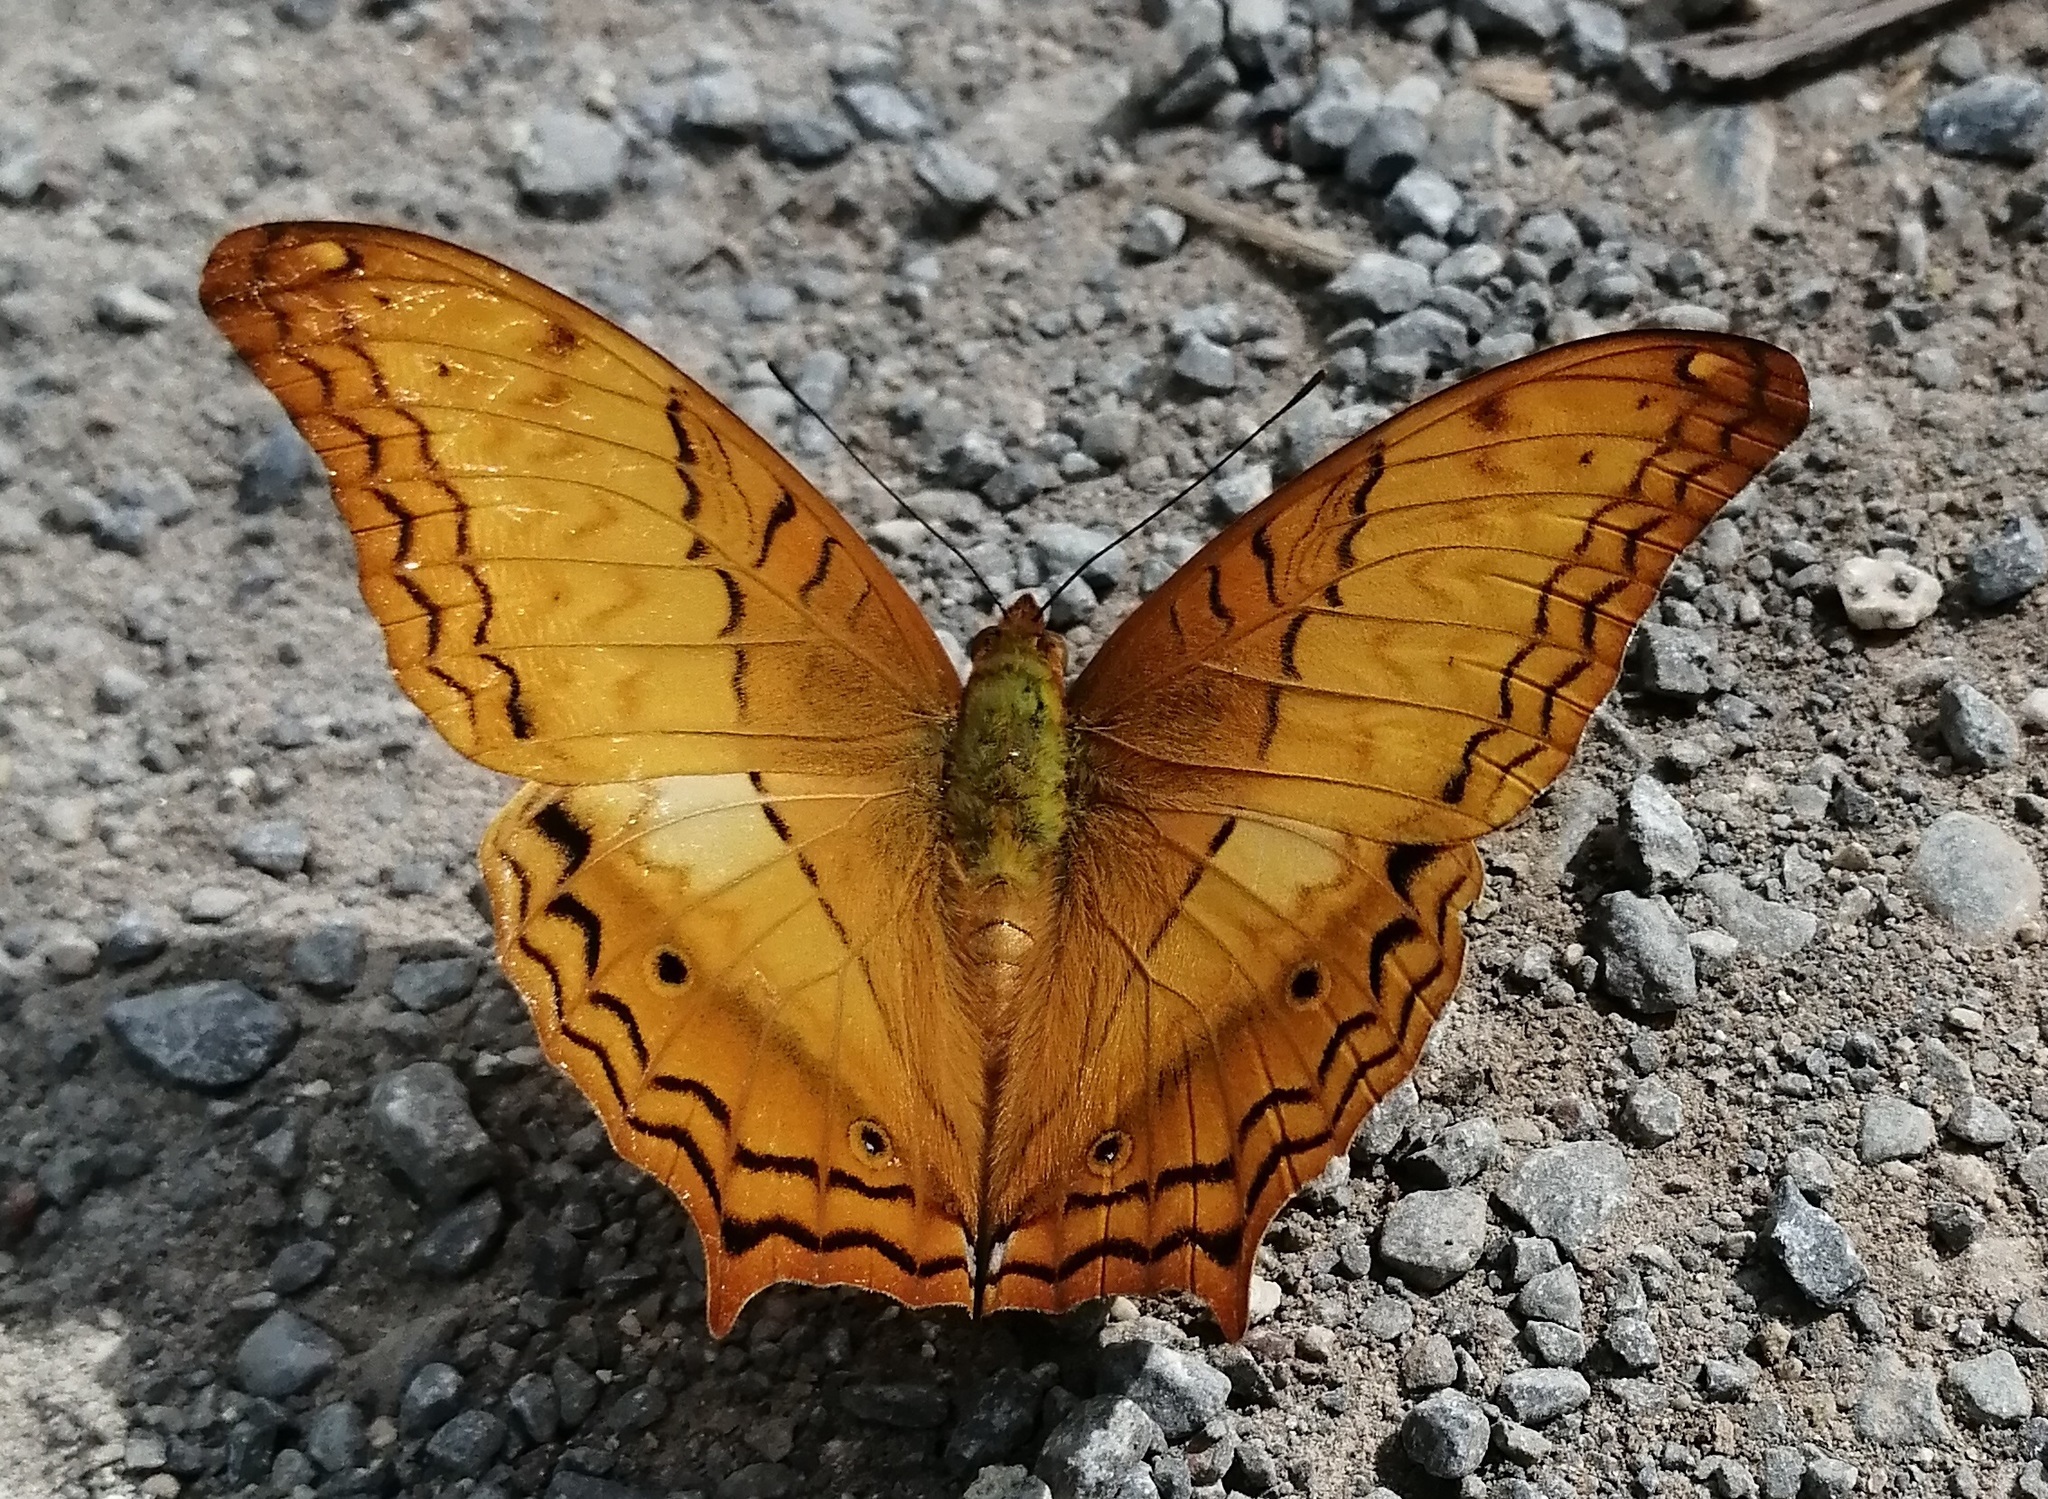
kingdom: Animalia
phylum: Arthropoda
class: Insecta
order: Lepidoptera
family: Nymphalidae
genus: Vindula
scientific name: Vindula erota
